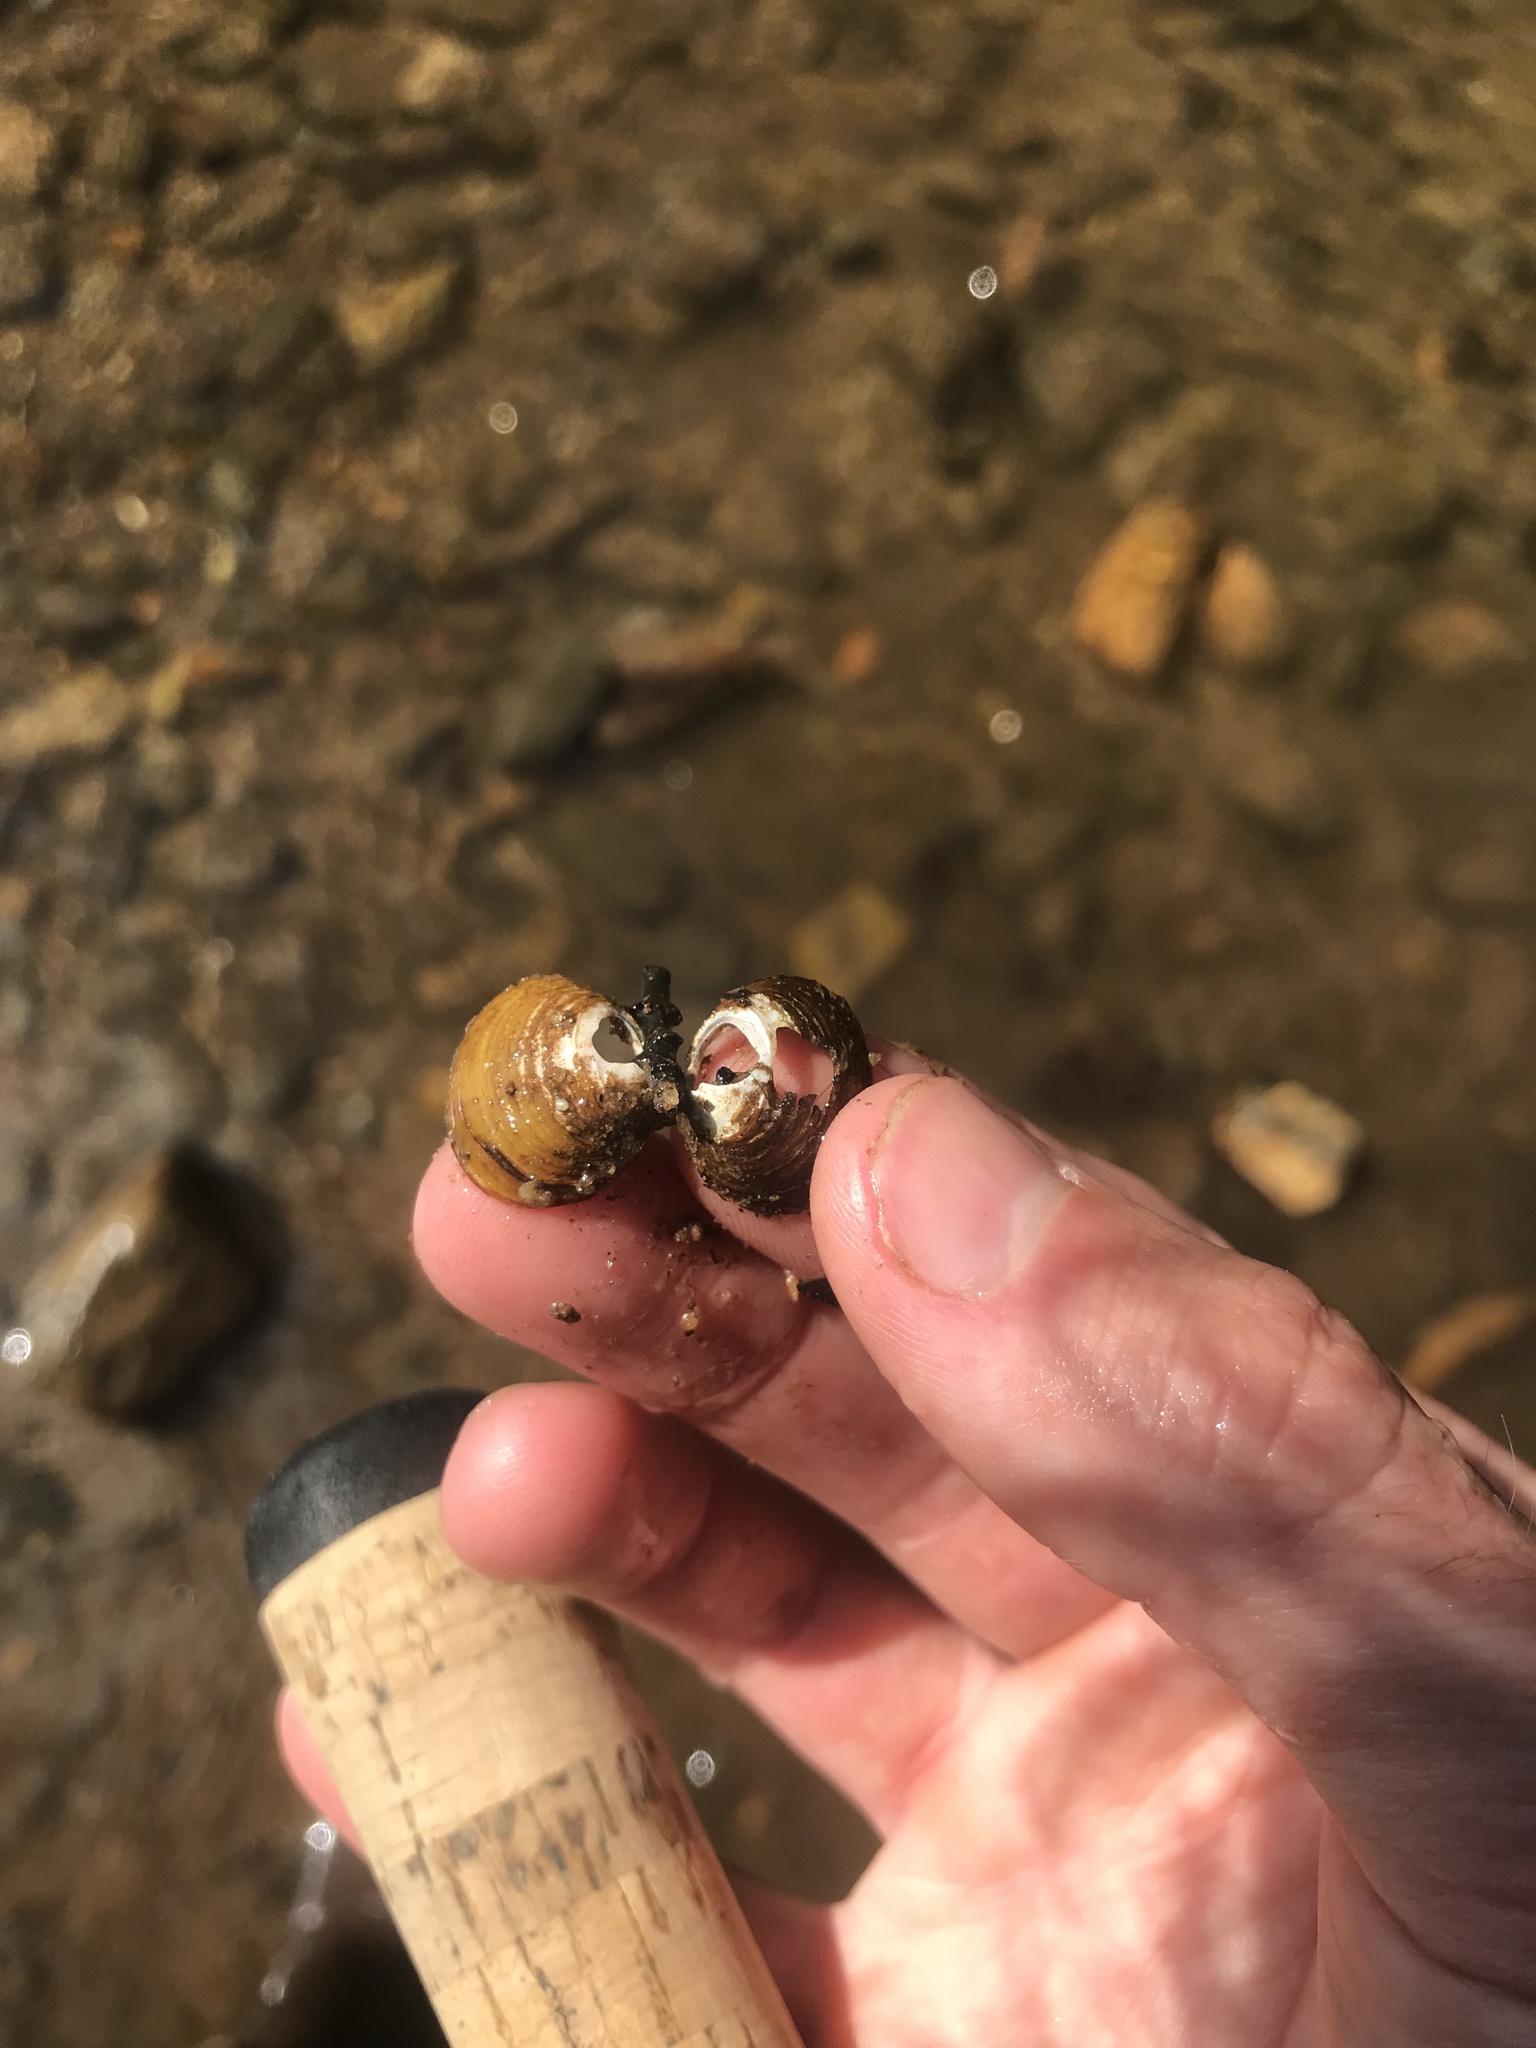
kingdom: Animalia
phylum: Mollusca
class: Bivalvia
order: Venerida
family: Cyrenidae
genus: Corbicula
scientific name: Corbicula fluminea
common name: Asian clam
